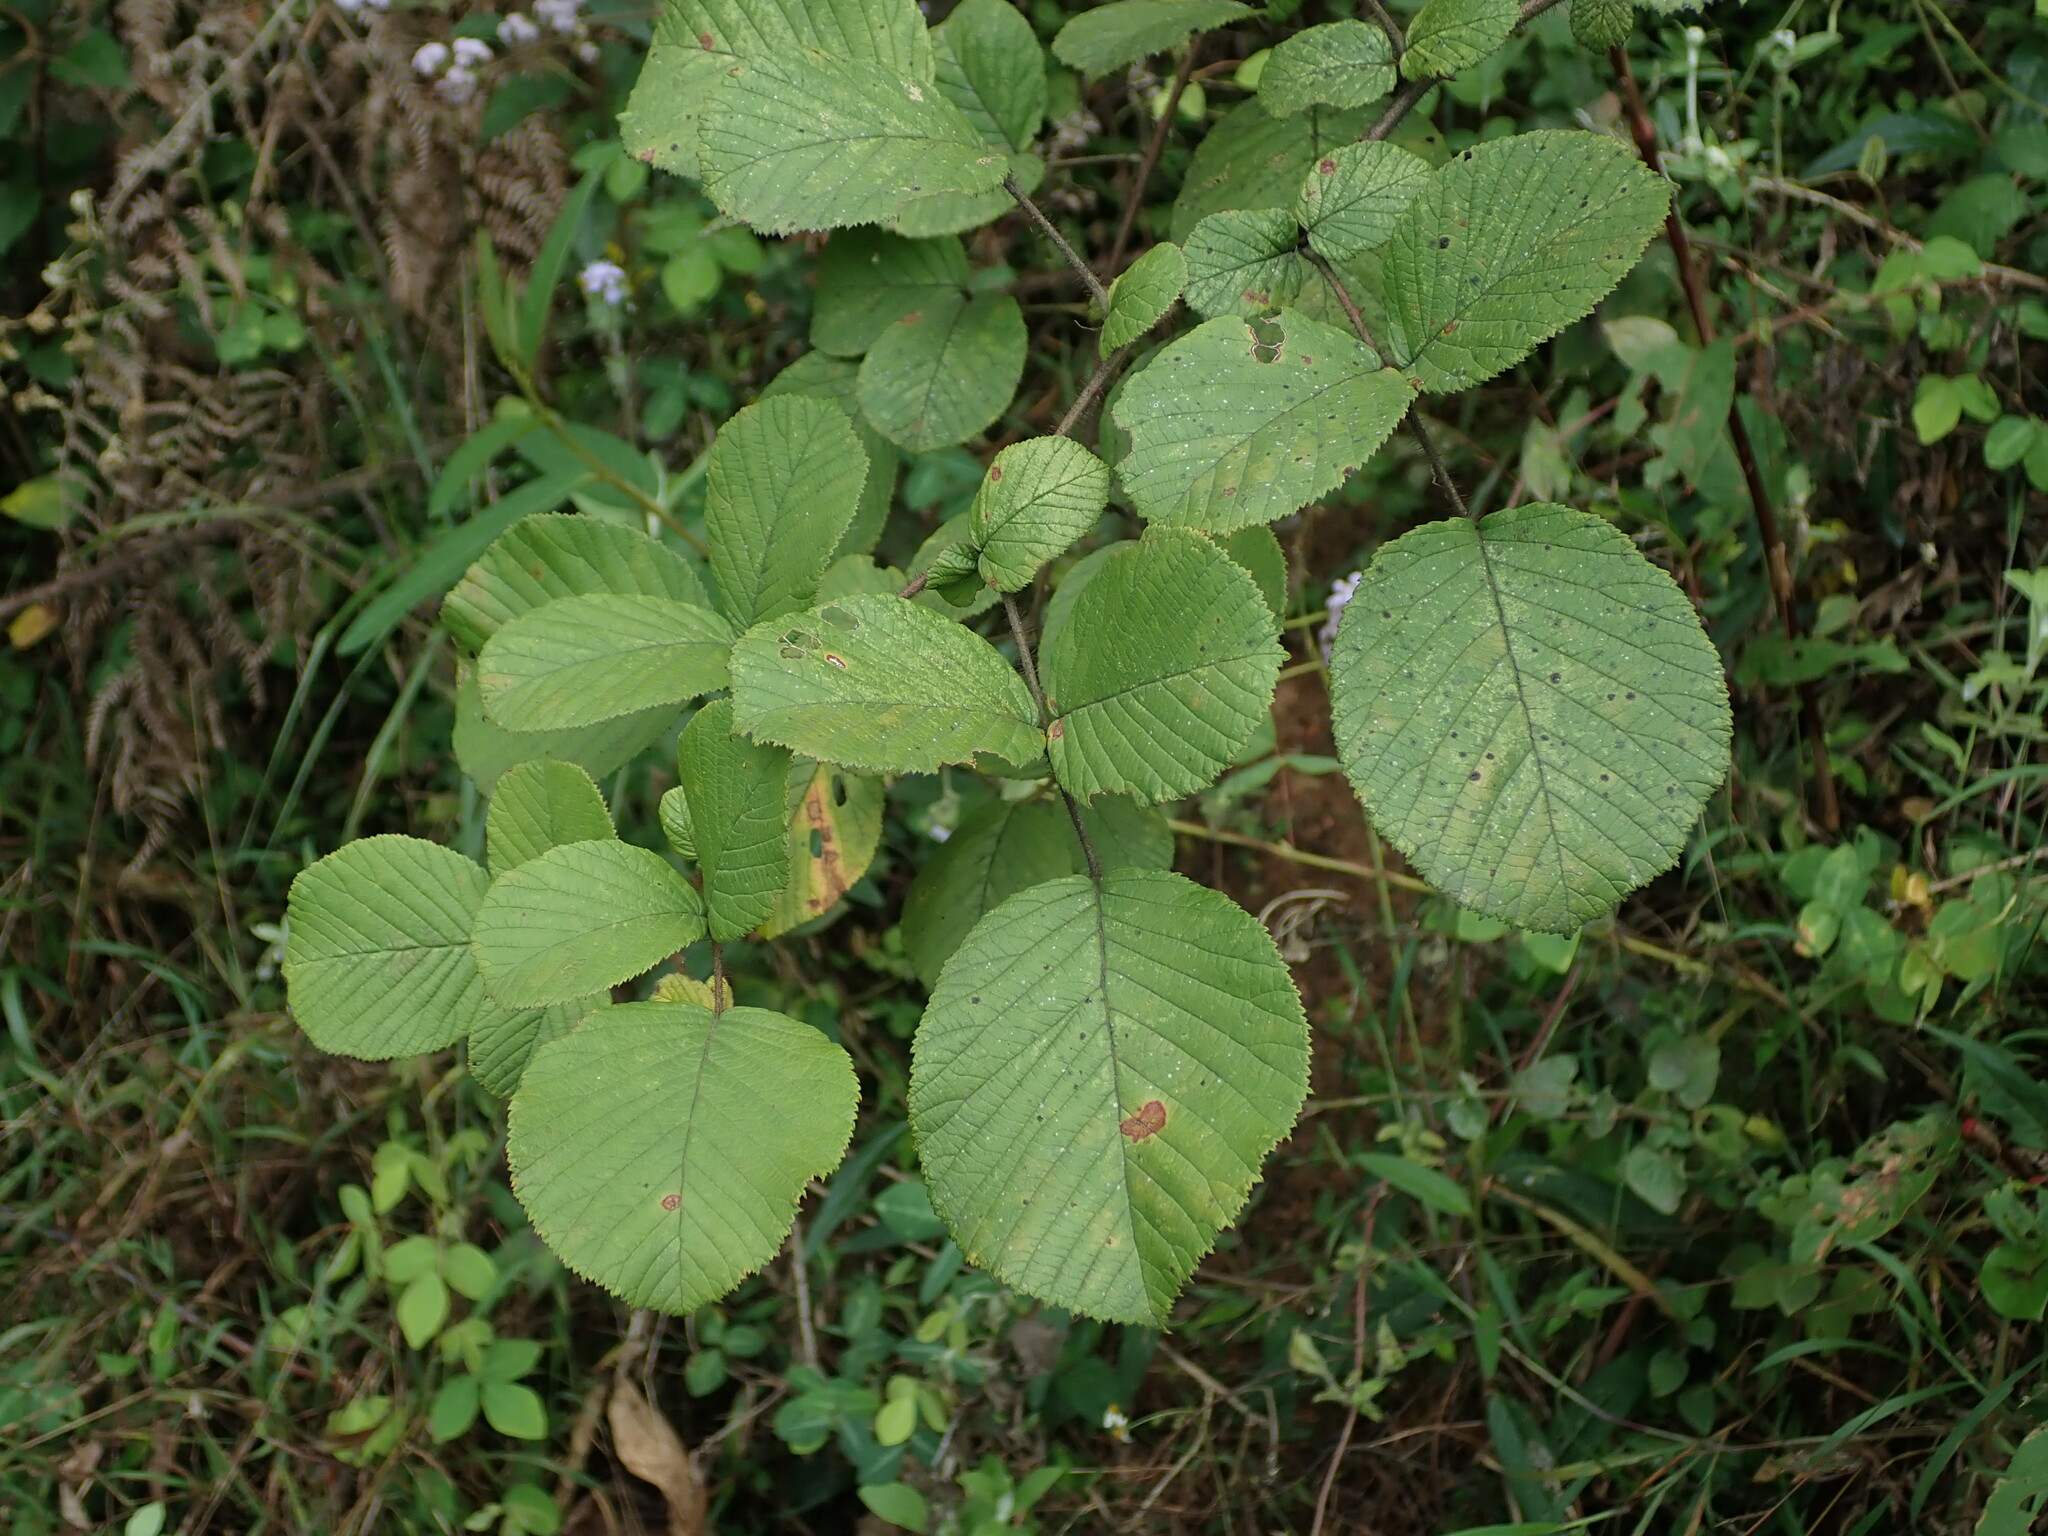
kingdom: Plantae
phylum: Tracheophyta
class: Magnoliopsida
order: Rosales
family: Rosaceae
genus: Rubus
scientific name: Rubus ellipticus
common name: Cheeseberry
